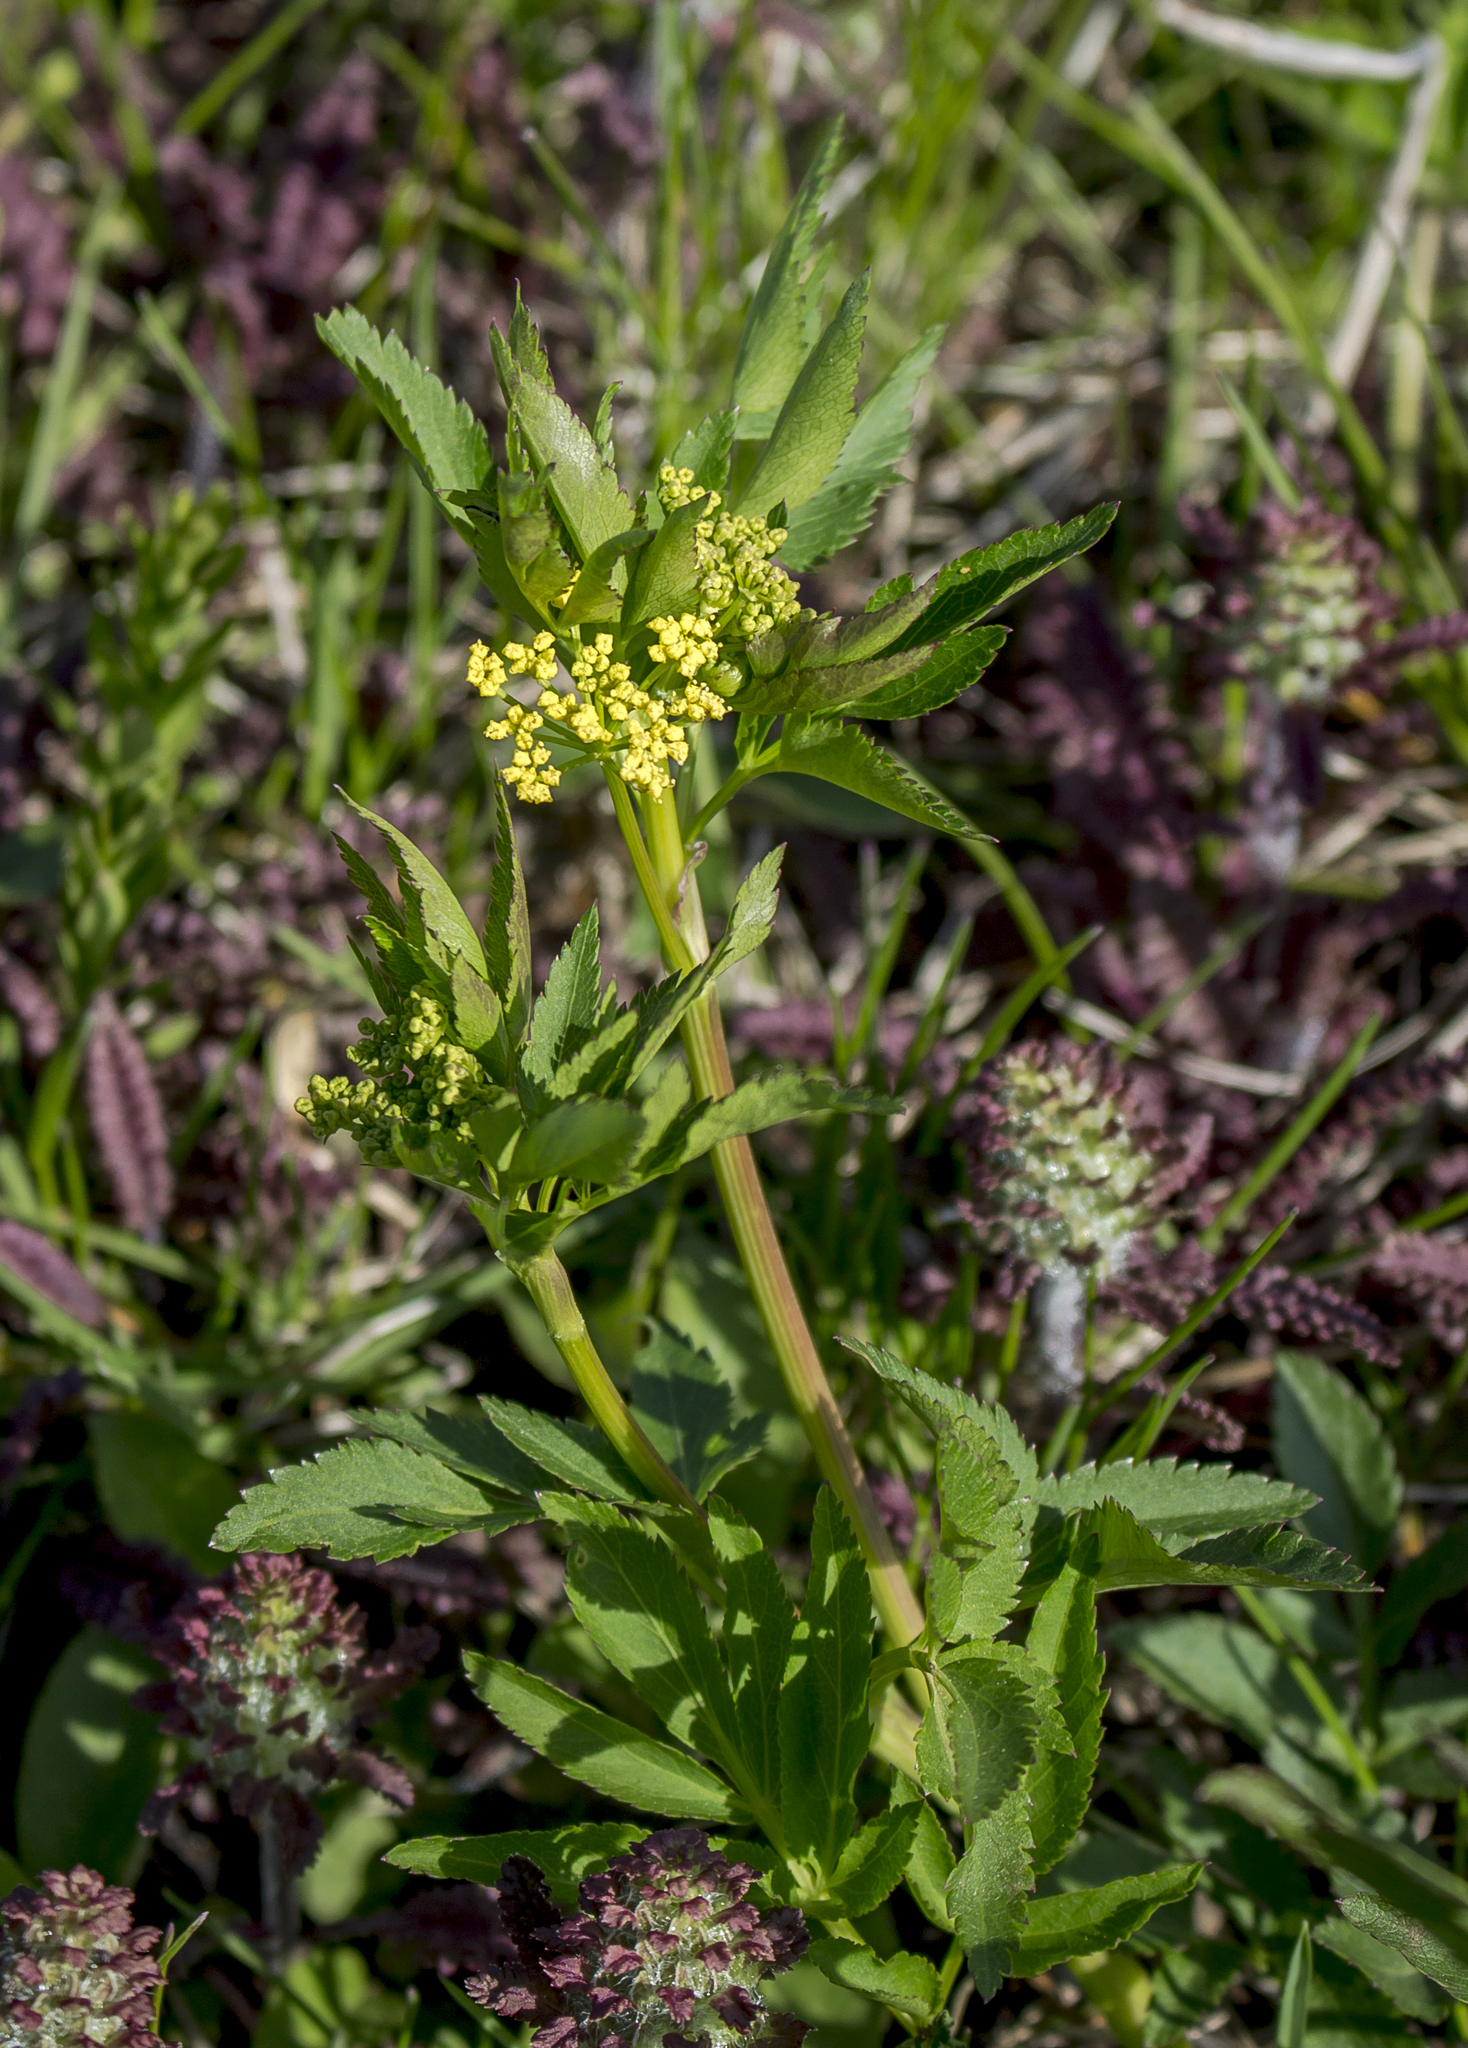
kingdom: Plantae
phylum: Tracheophyta
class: Magnoliopsida
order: Apiales
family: Apiaceae
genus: Zizia
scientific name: Zizia aurea
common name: Golden alexanders
